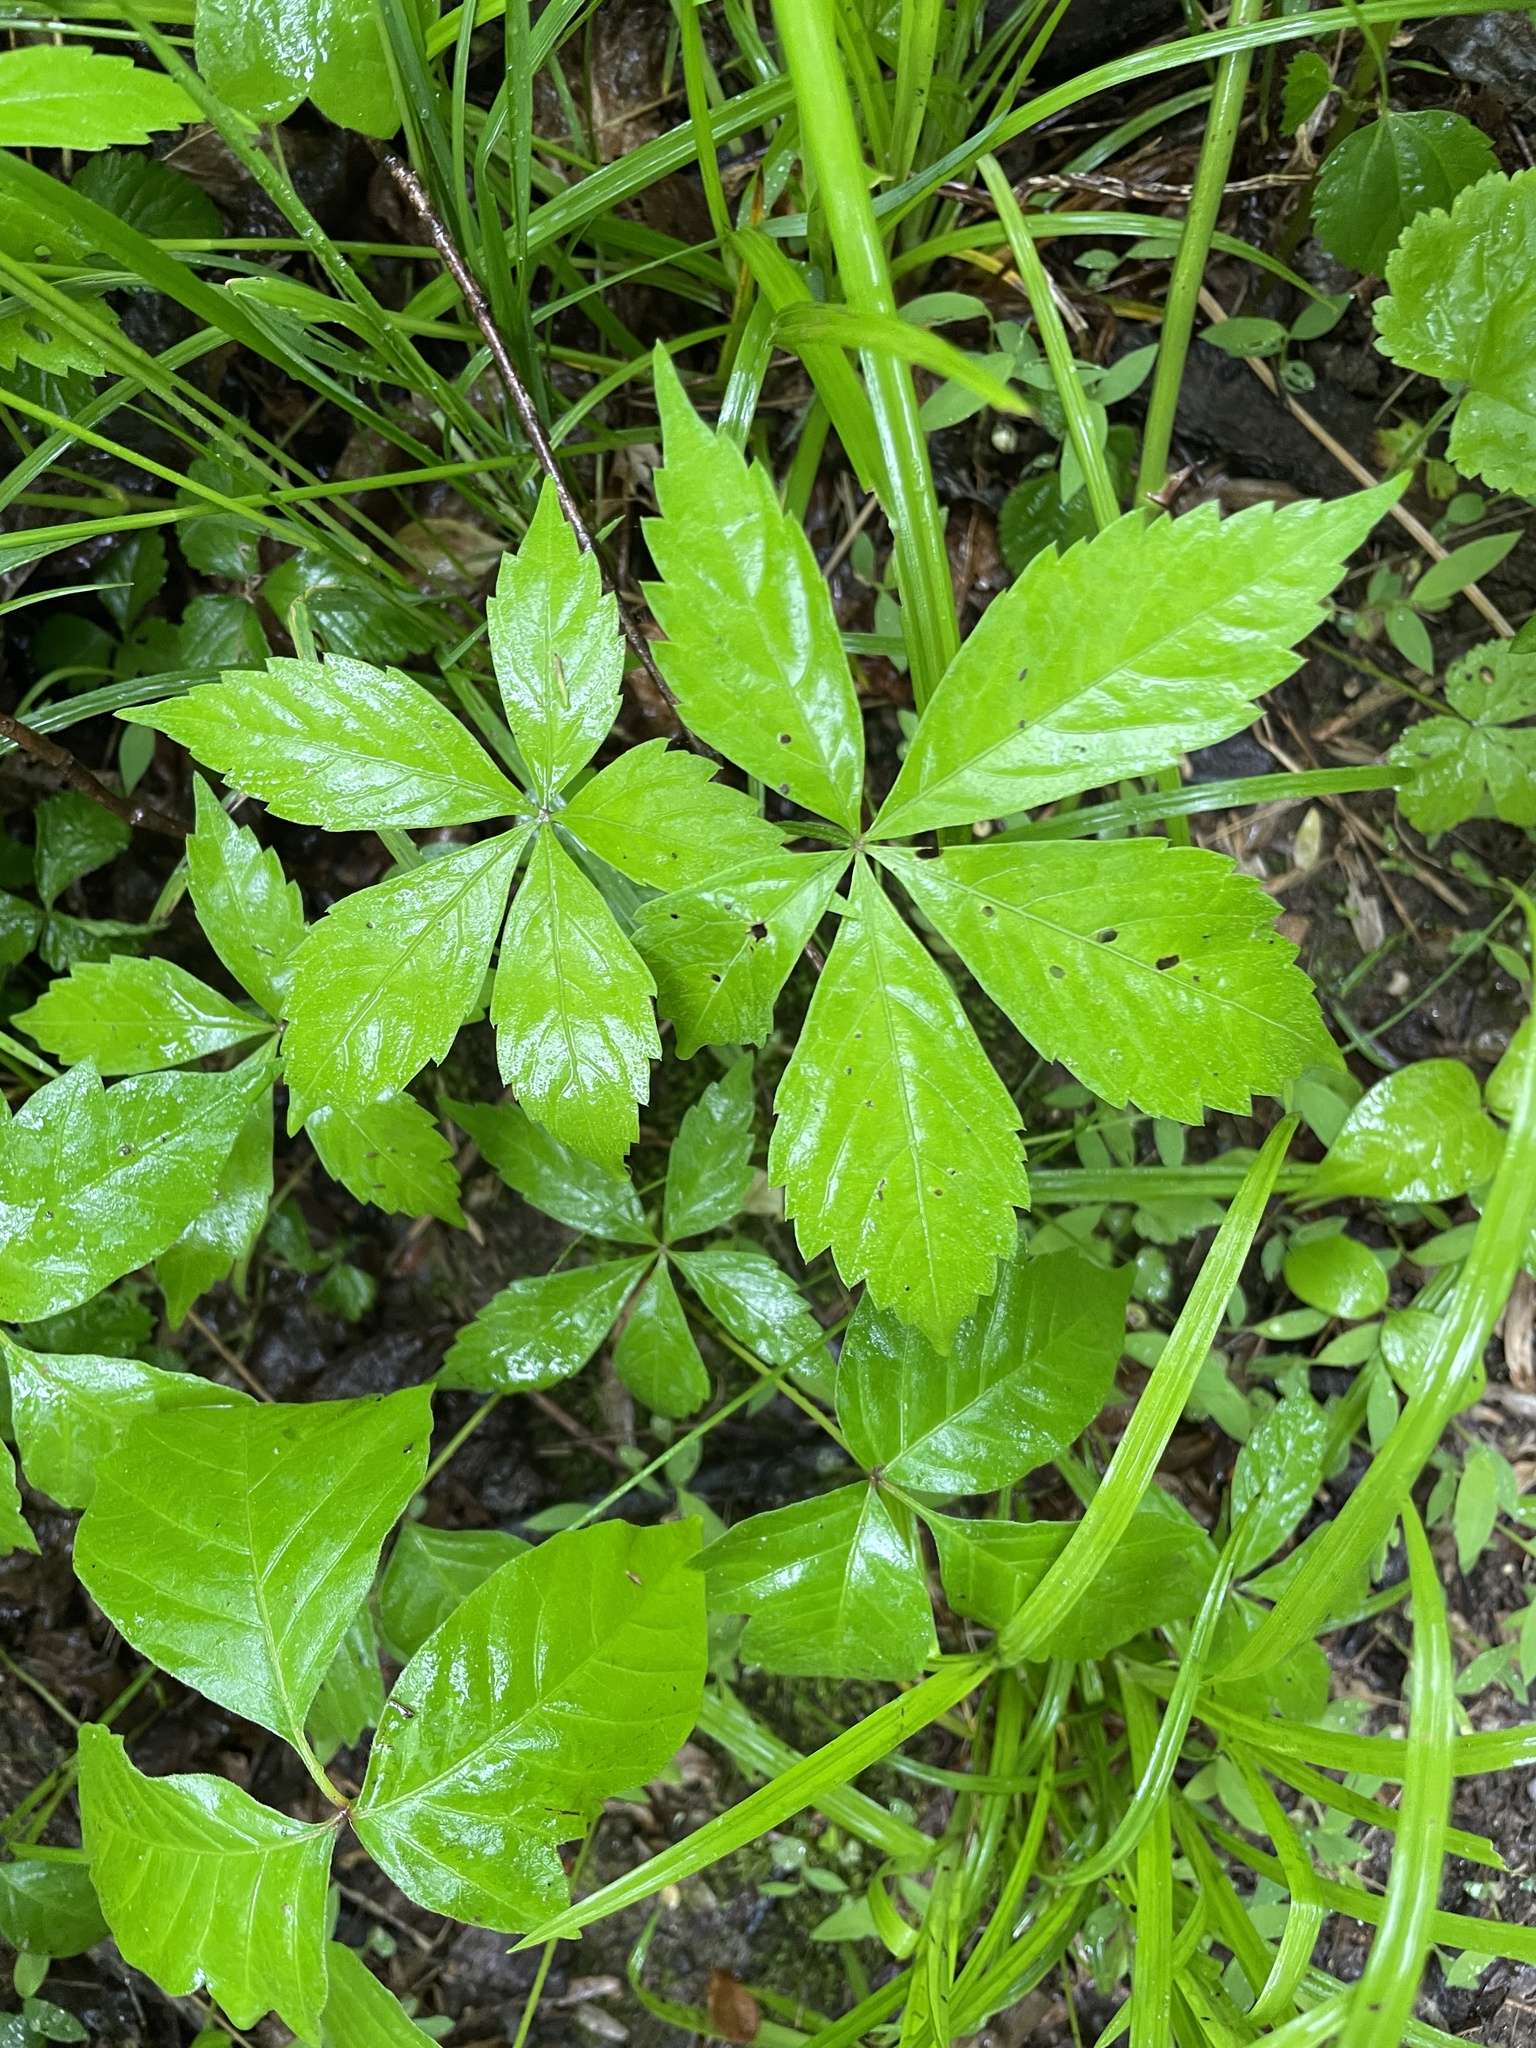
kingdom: Plantae
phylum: Tracheophyta
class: Magnoliopsida
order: Vitales
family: Vitaceae
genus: Parthenocissus
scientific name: Parthenocissus quinquefolia
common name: Virginia-creeper
